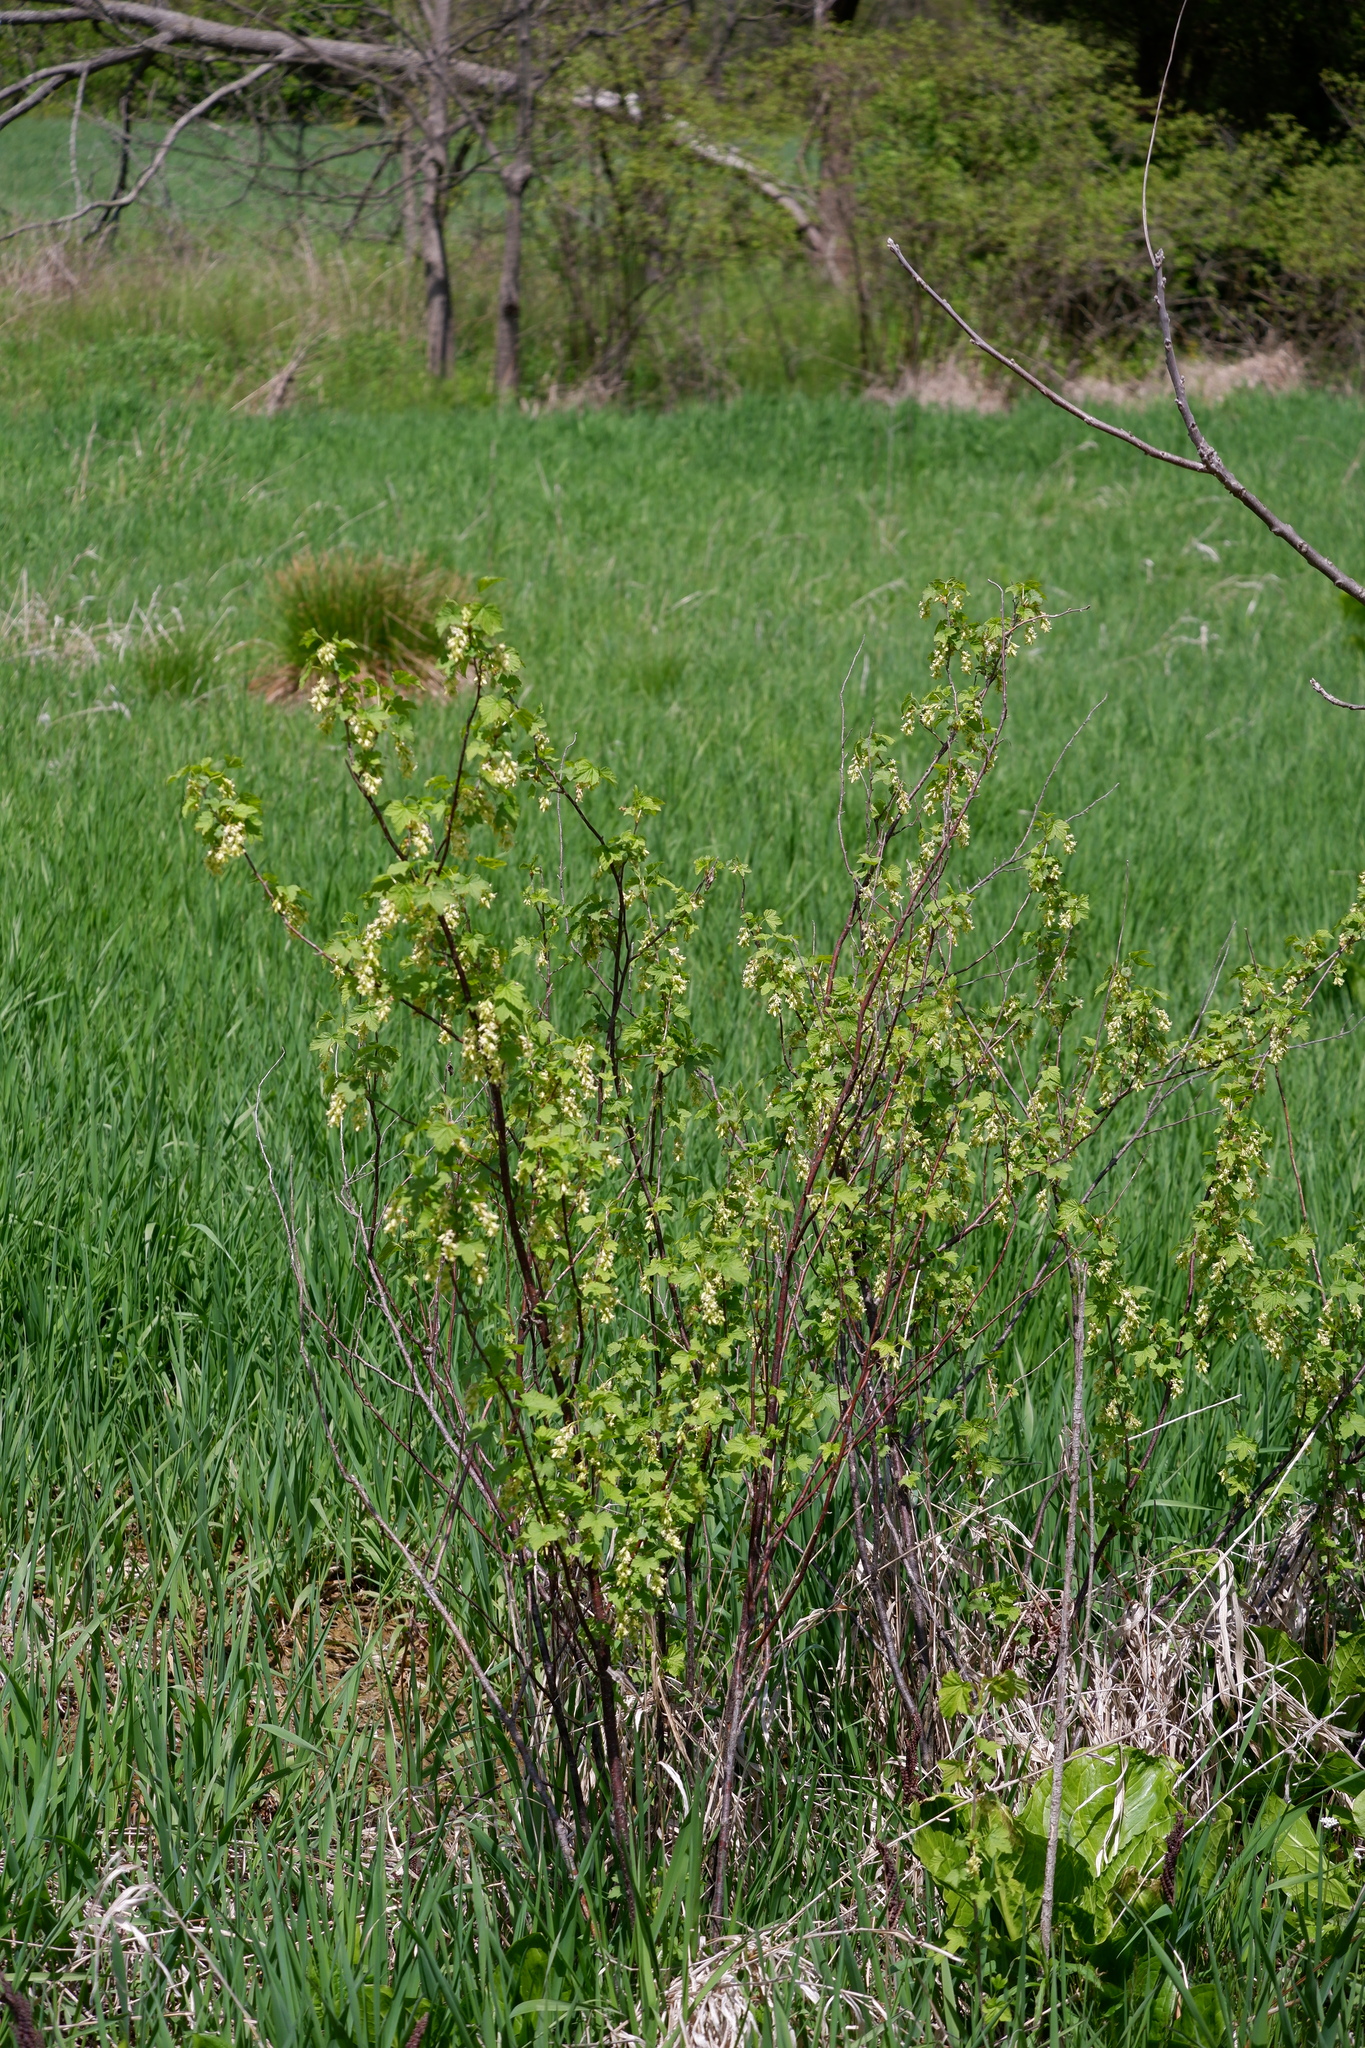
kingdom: Plantae
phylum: Tracheophyta
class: Magnoliopsida
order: Saxifragales
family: Grossulariaceae
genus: Ribes
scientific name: Ribes americanum
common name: American black currant
